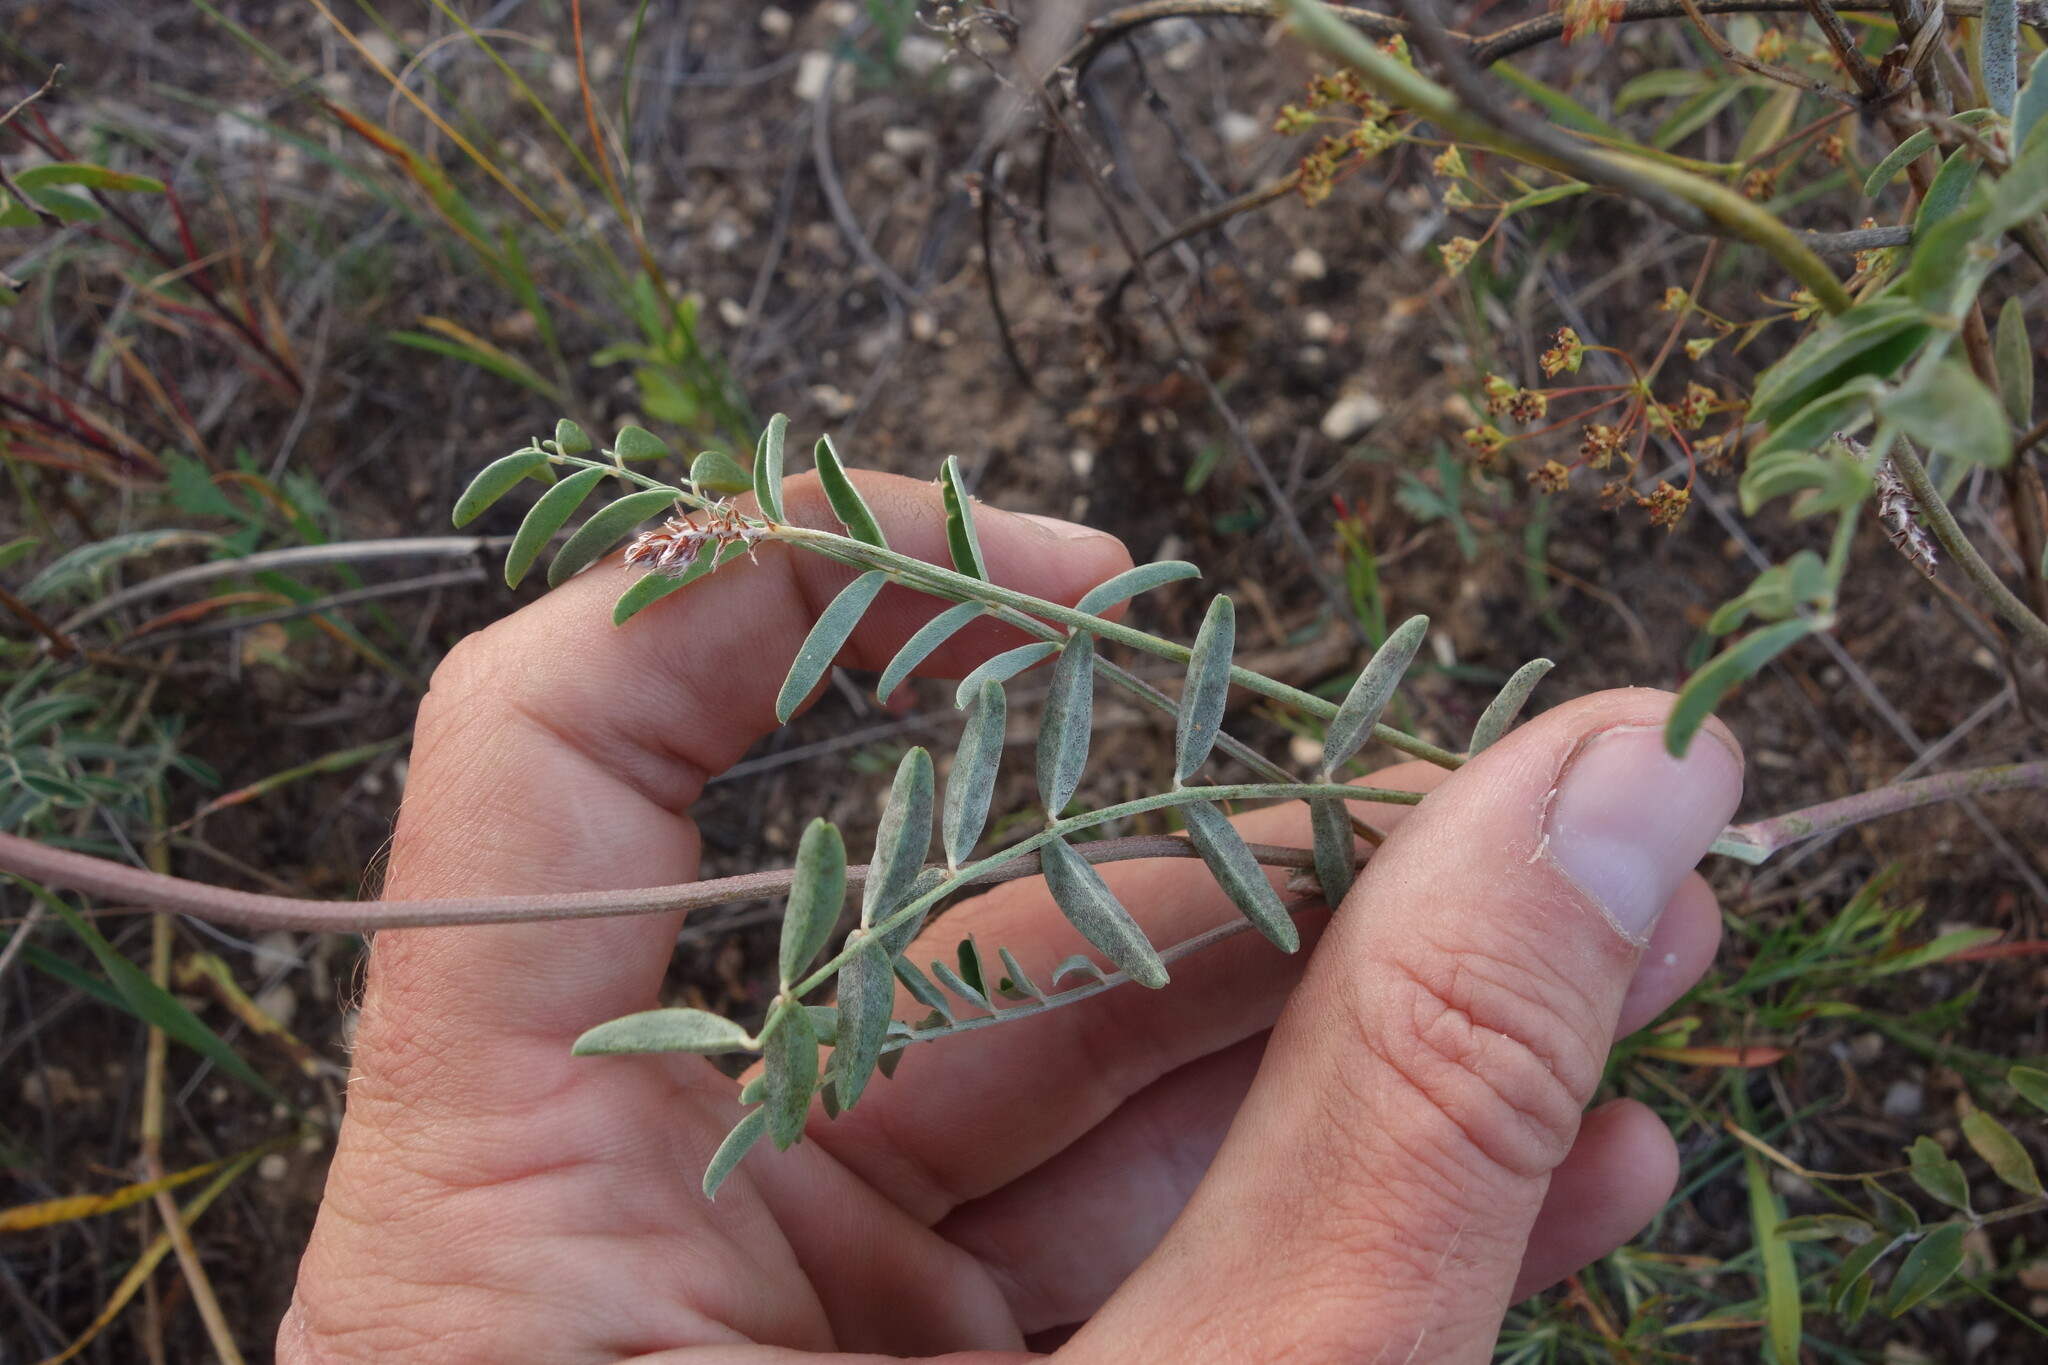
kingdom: Plantae
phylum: Tracheophyta
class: Magnoliopsida
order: Fabales
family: Fabaceae
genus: Hedysarum
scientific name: Hedysarum dahuricum
